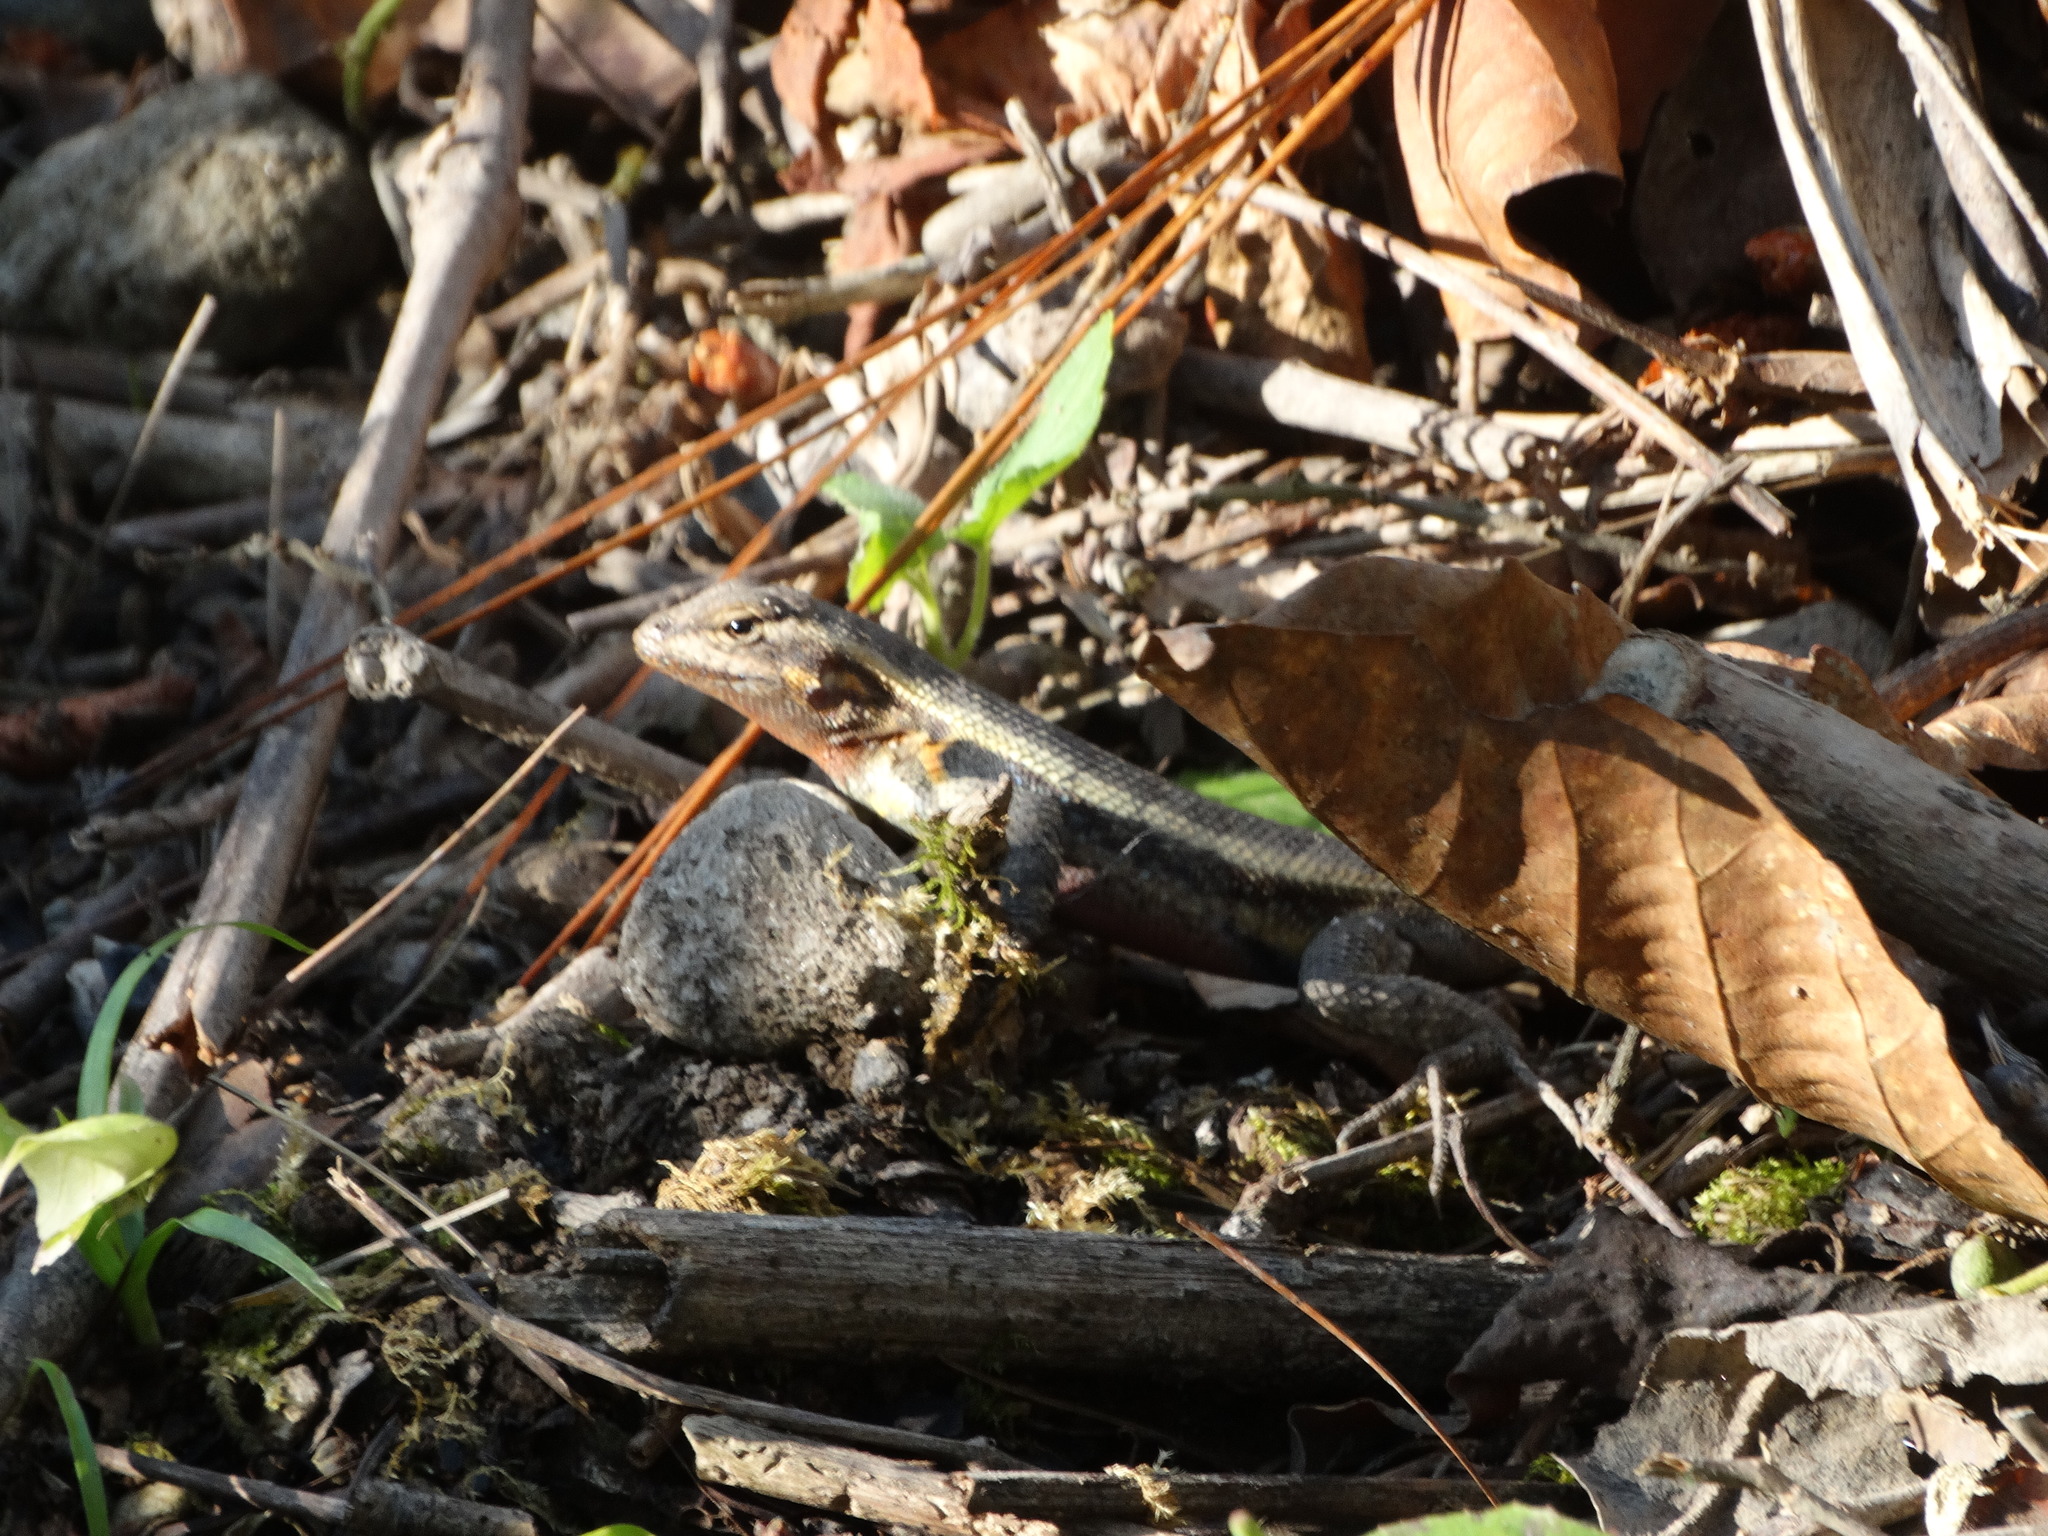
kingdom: Animalia
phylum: Chordata
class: Squamata
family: Phrynosomatidae
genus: Sceloporus
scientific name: Sceloporus variabilis
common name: Rosebelly lizard
